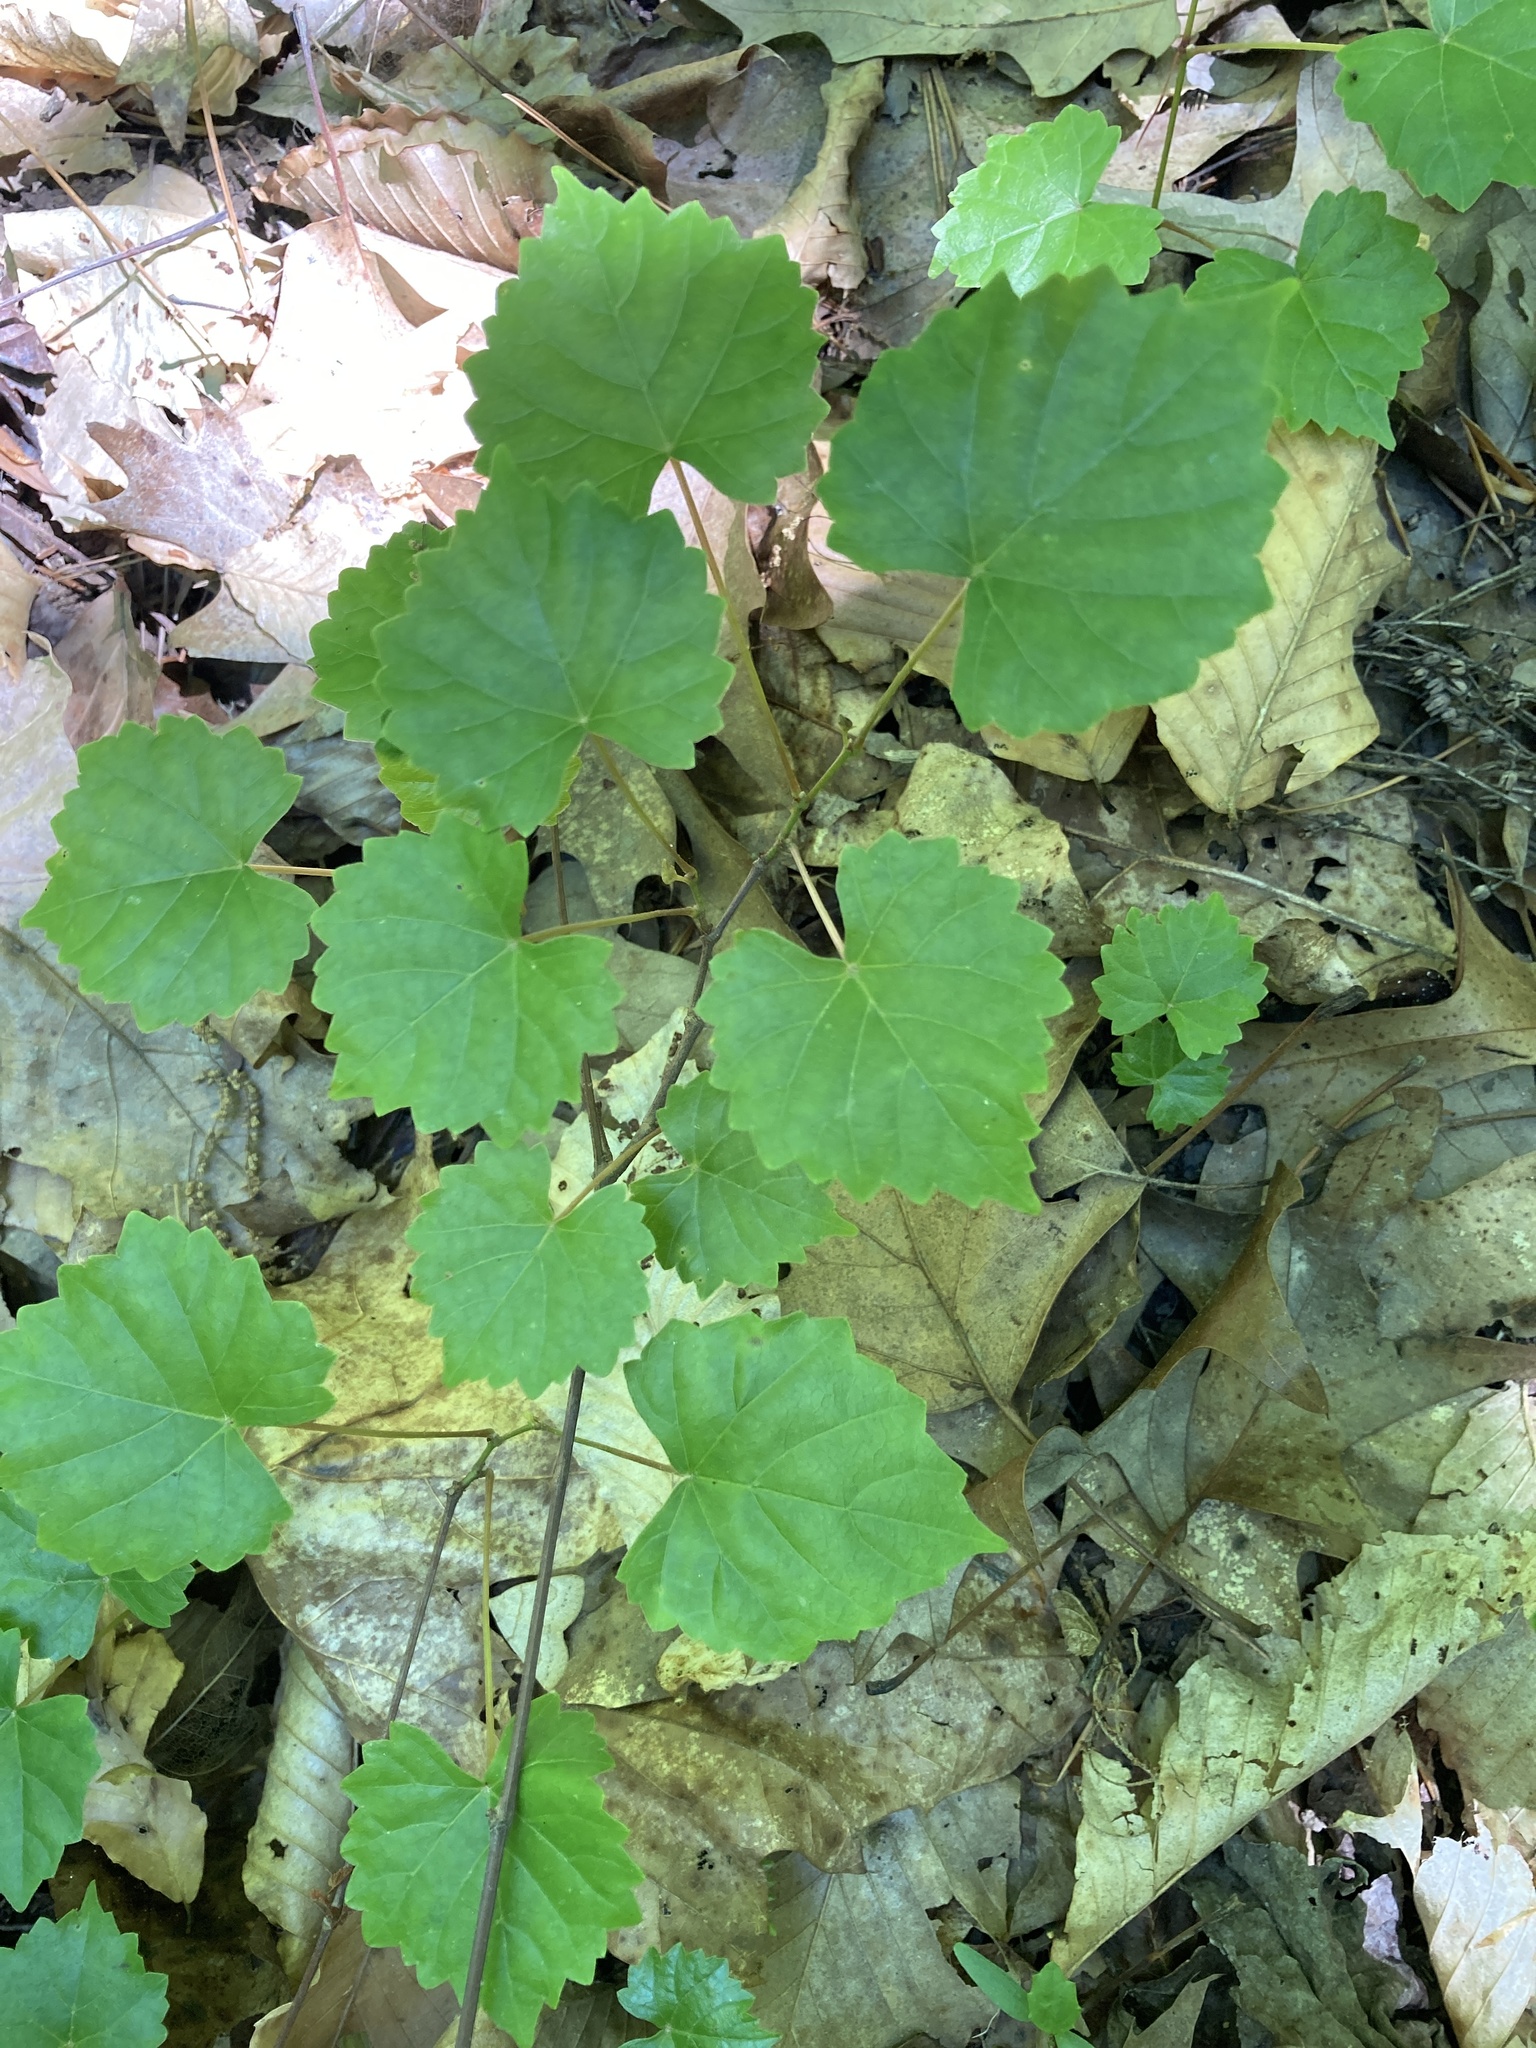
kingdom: Plantae
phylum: Tracheophyta
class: Magnoliopsida
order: Vitales
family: Vitaceae
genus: Vitis
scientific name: Vitis rotundifolia
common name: Muscadine grape
